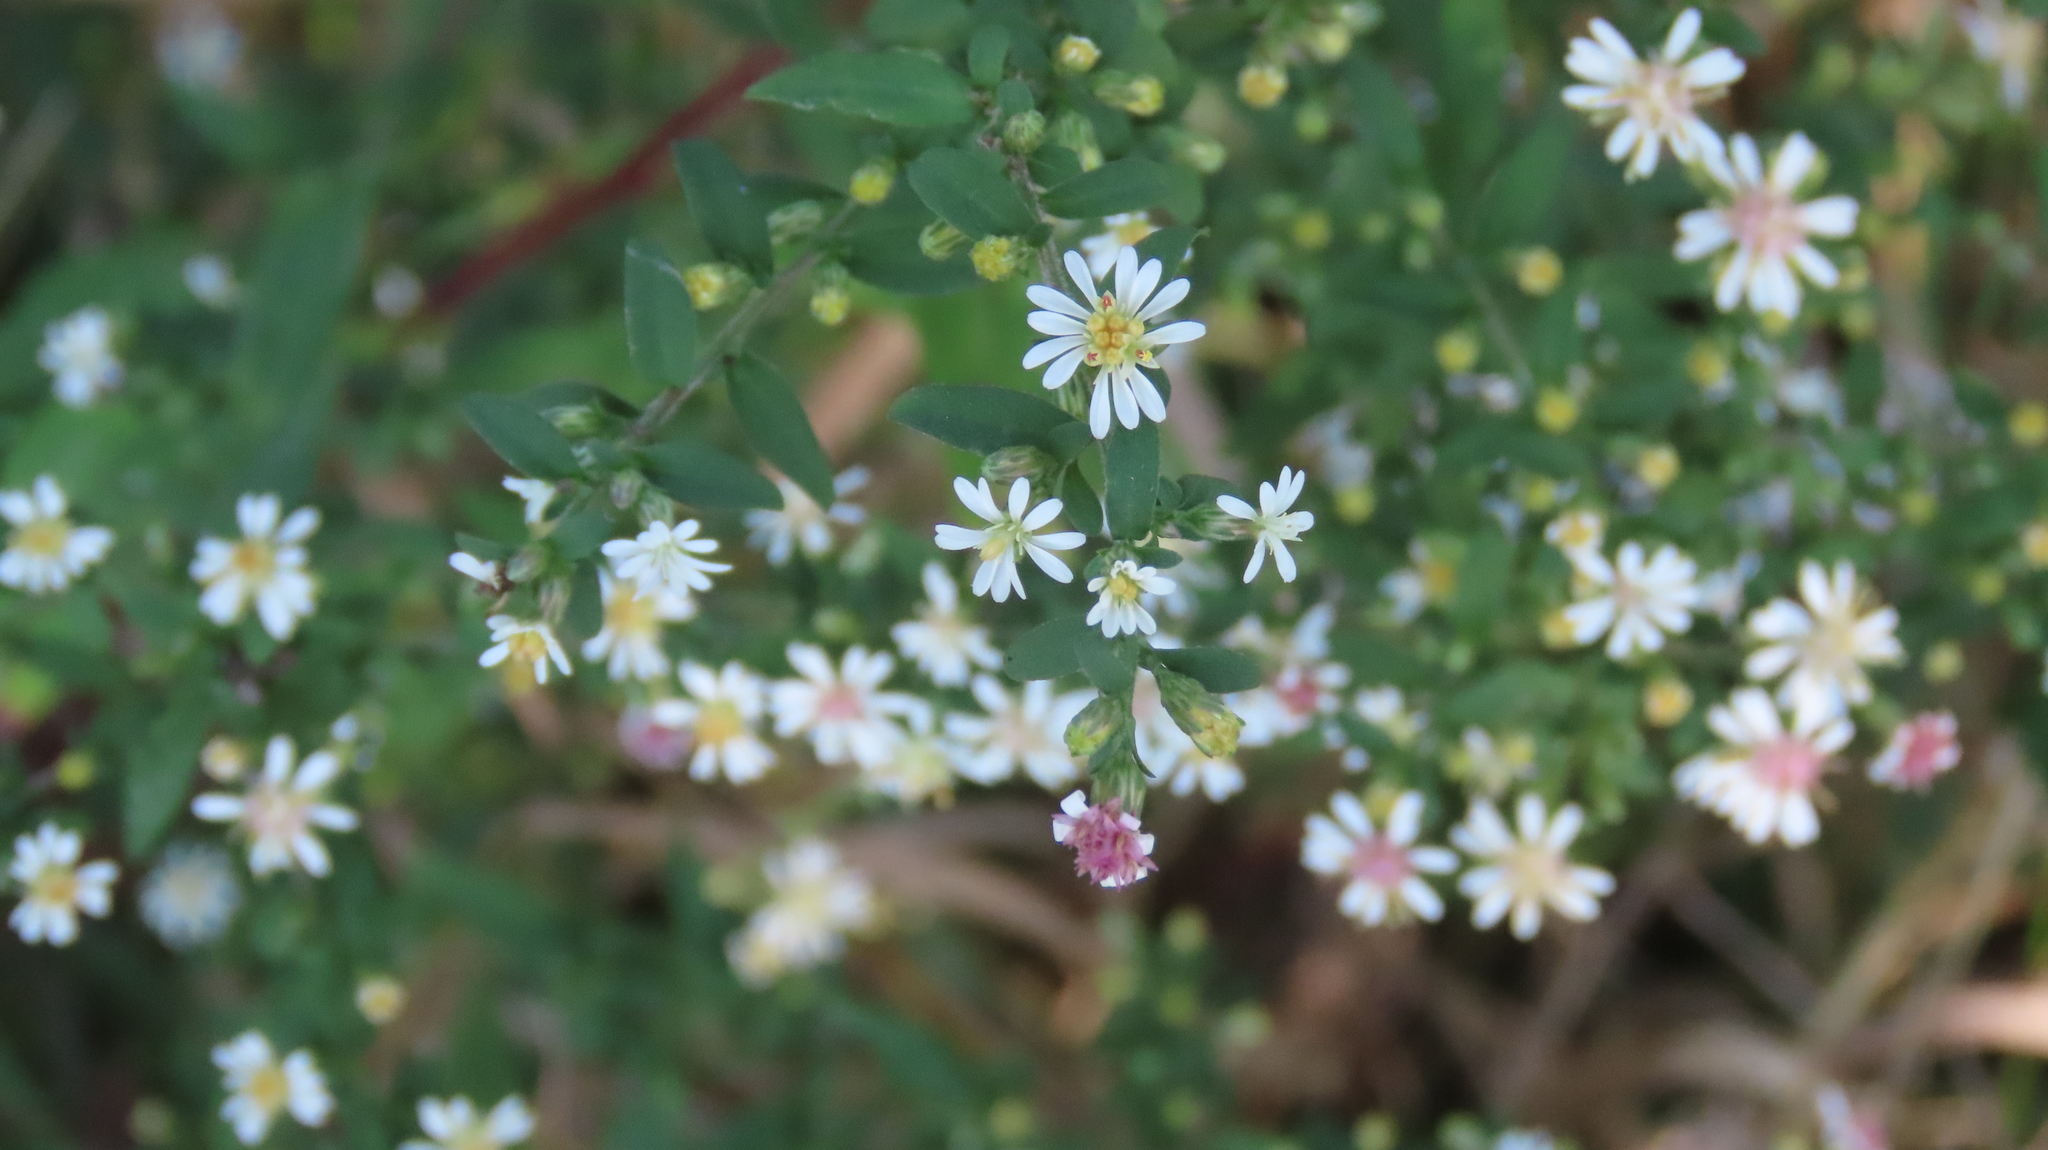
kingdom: Plantae
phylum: Tracheophyta
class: Magnoliopsida
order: Asterales
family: Asteraceae
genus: Symphyotrichum
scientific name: Symphyotrichum lateriflorum
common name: Calico aster
